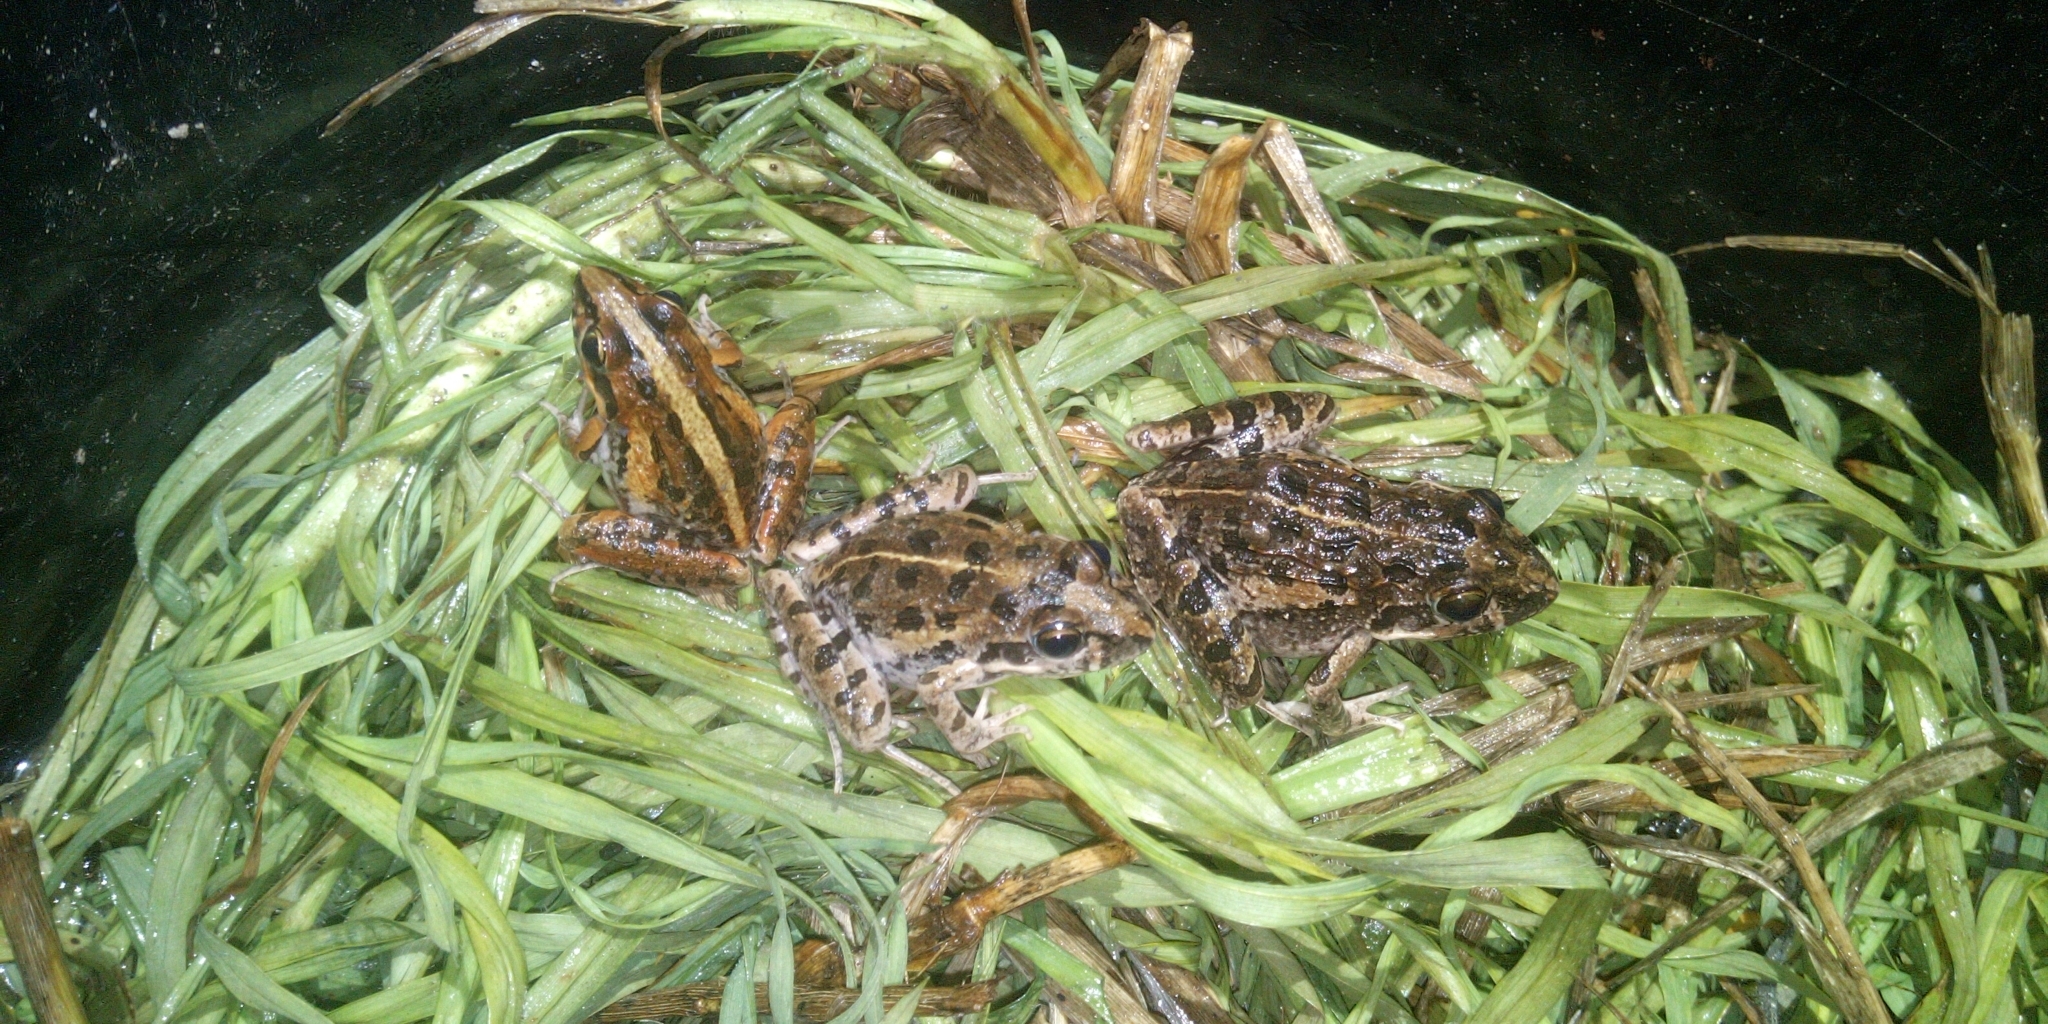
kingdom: Animalia
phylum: Chordata
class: Amphibia
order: Anura
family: Pyxicephalidae
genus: Strongylopus
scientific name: Strongylopus grayii
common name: Gray's stream frog
